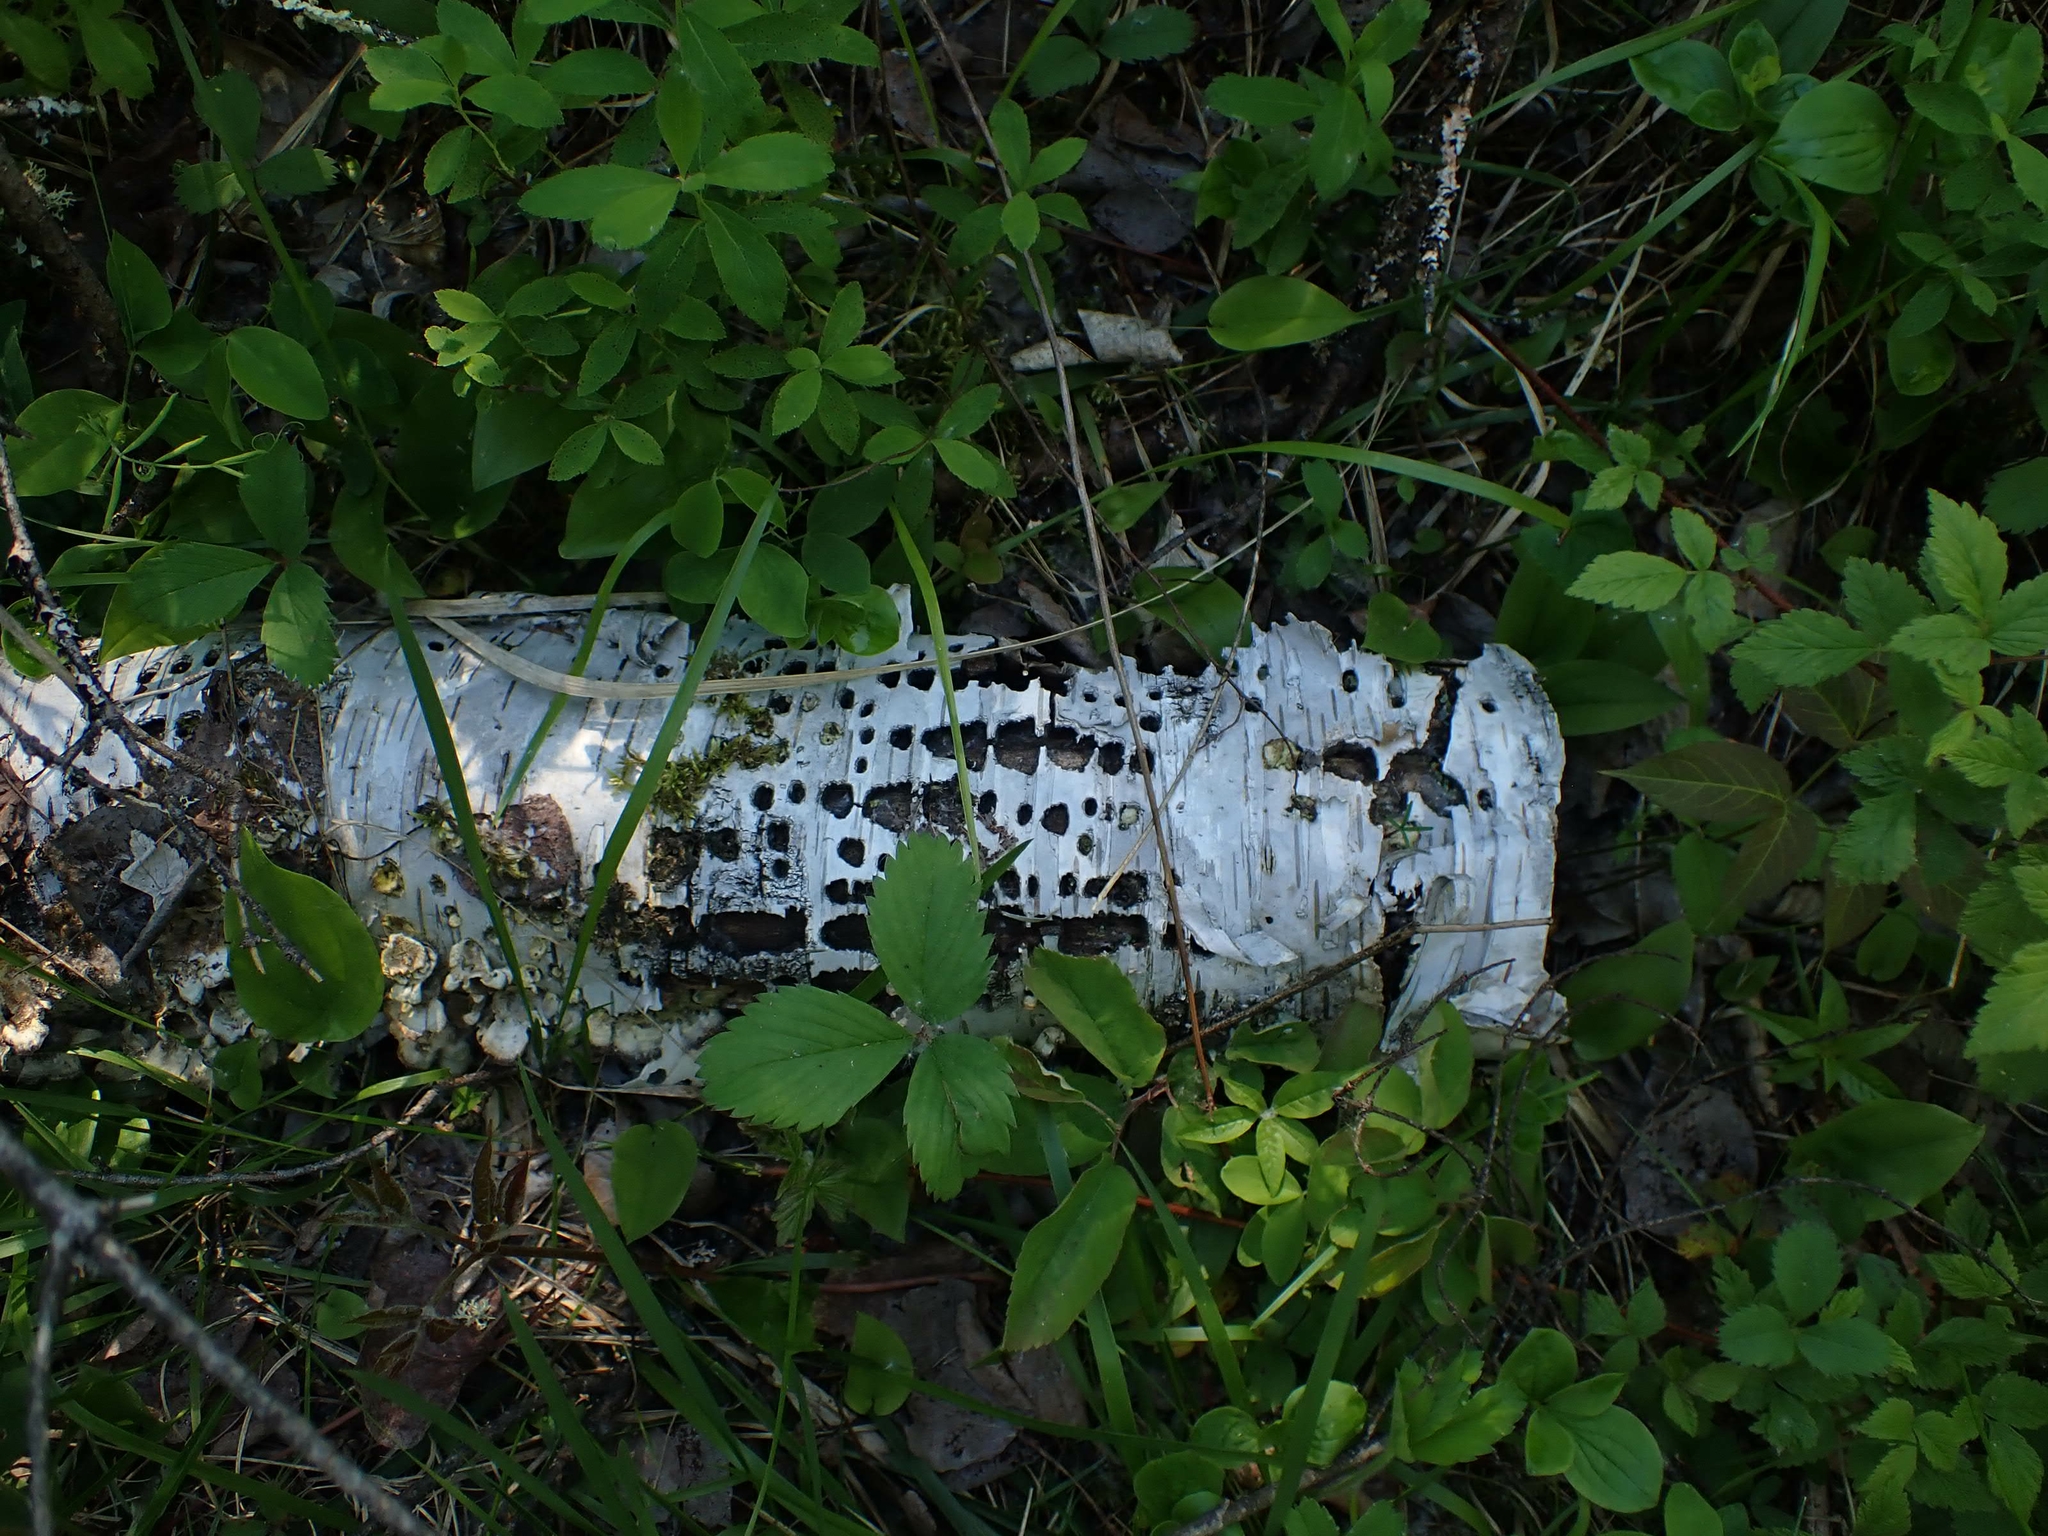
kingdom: Animalia
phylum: Chordata
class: Aves
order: Piciformes
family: Picidae
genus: Sphyrapicus
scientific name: Sphyrapicus varius
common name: Yellow-bellied sapsucker
